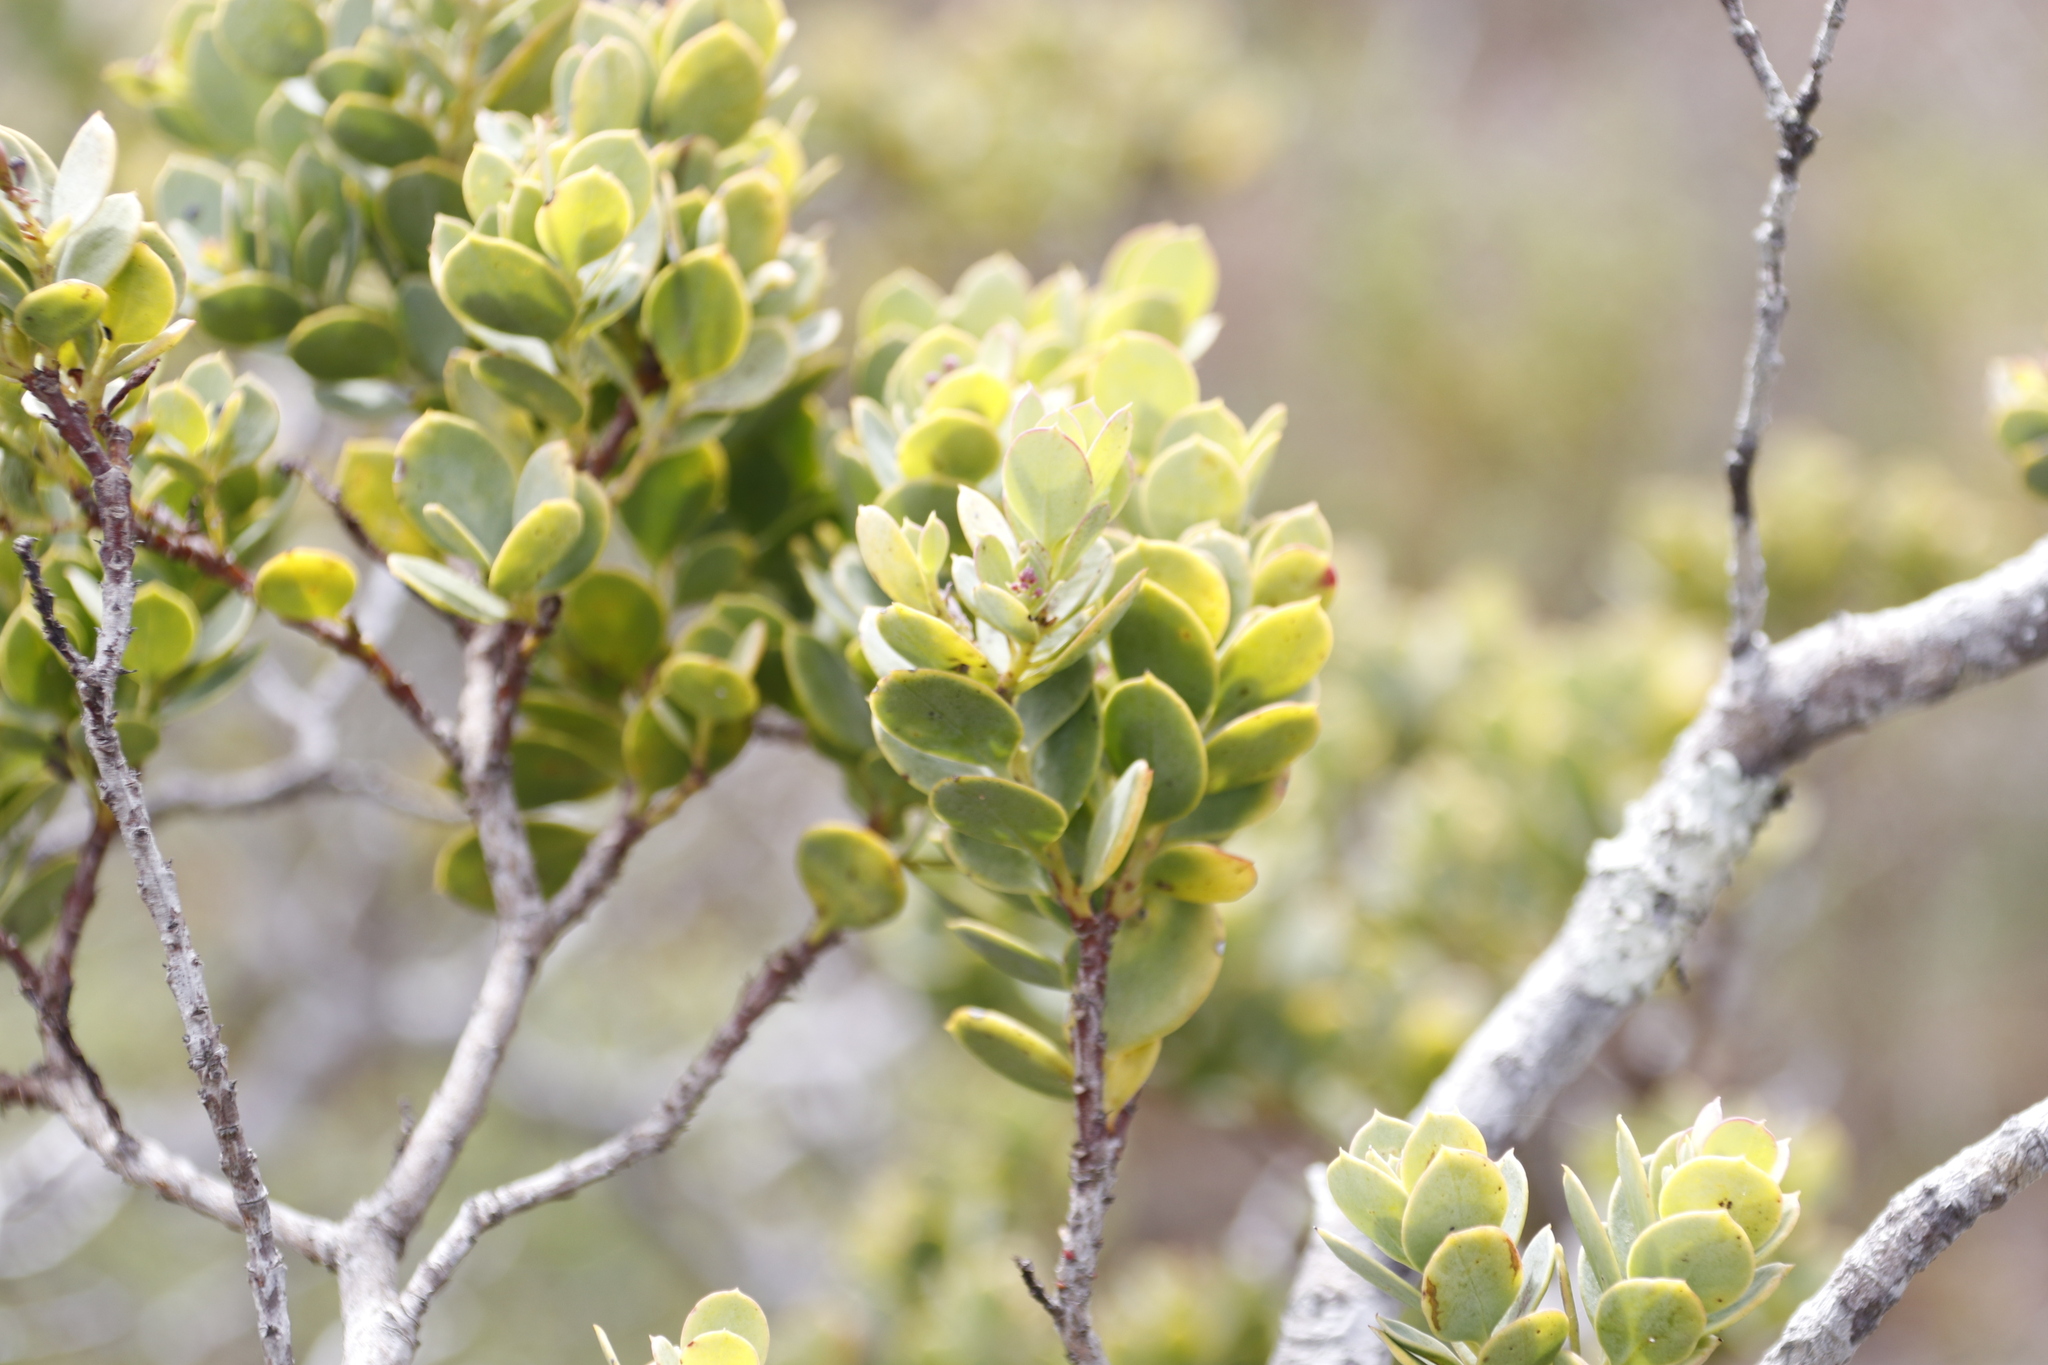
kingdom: Plantae
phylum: Tracheophyta
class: Magnoliopsida
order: Santalales
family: Santalaceae
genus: Osyris
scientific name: Osyris compressa
